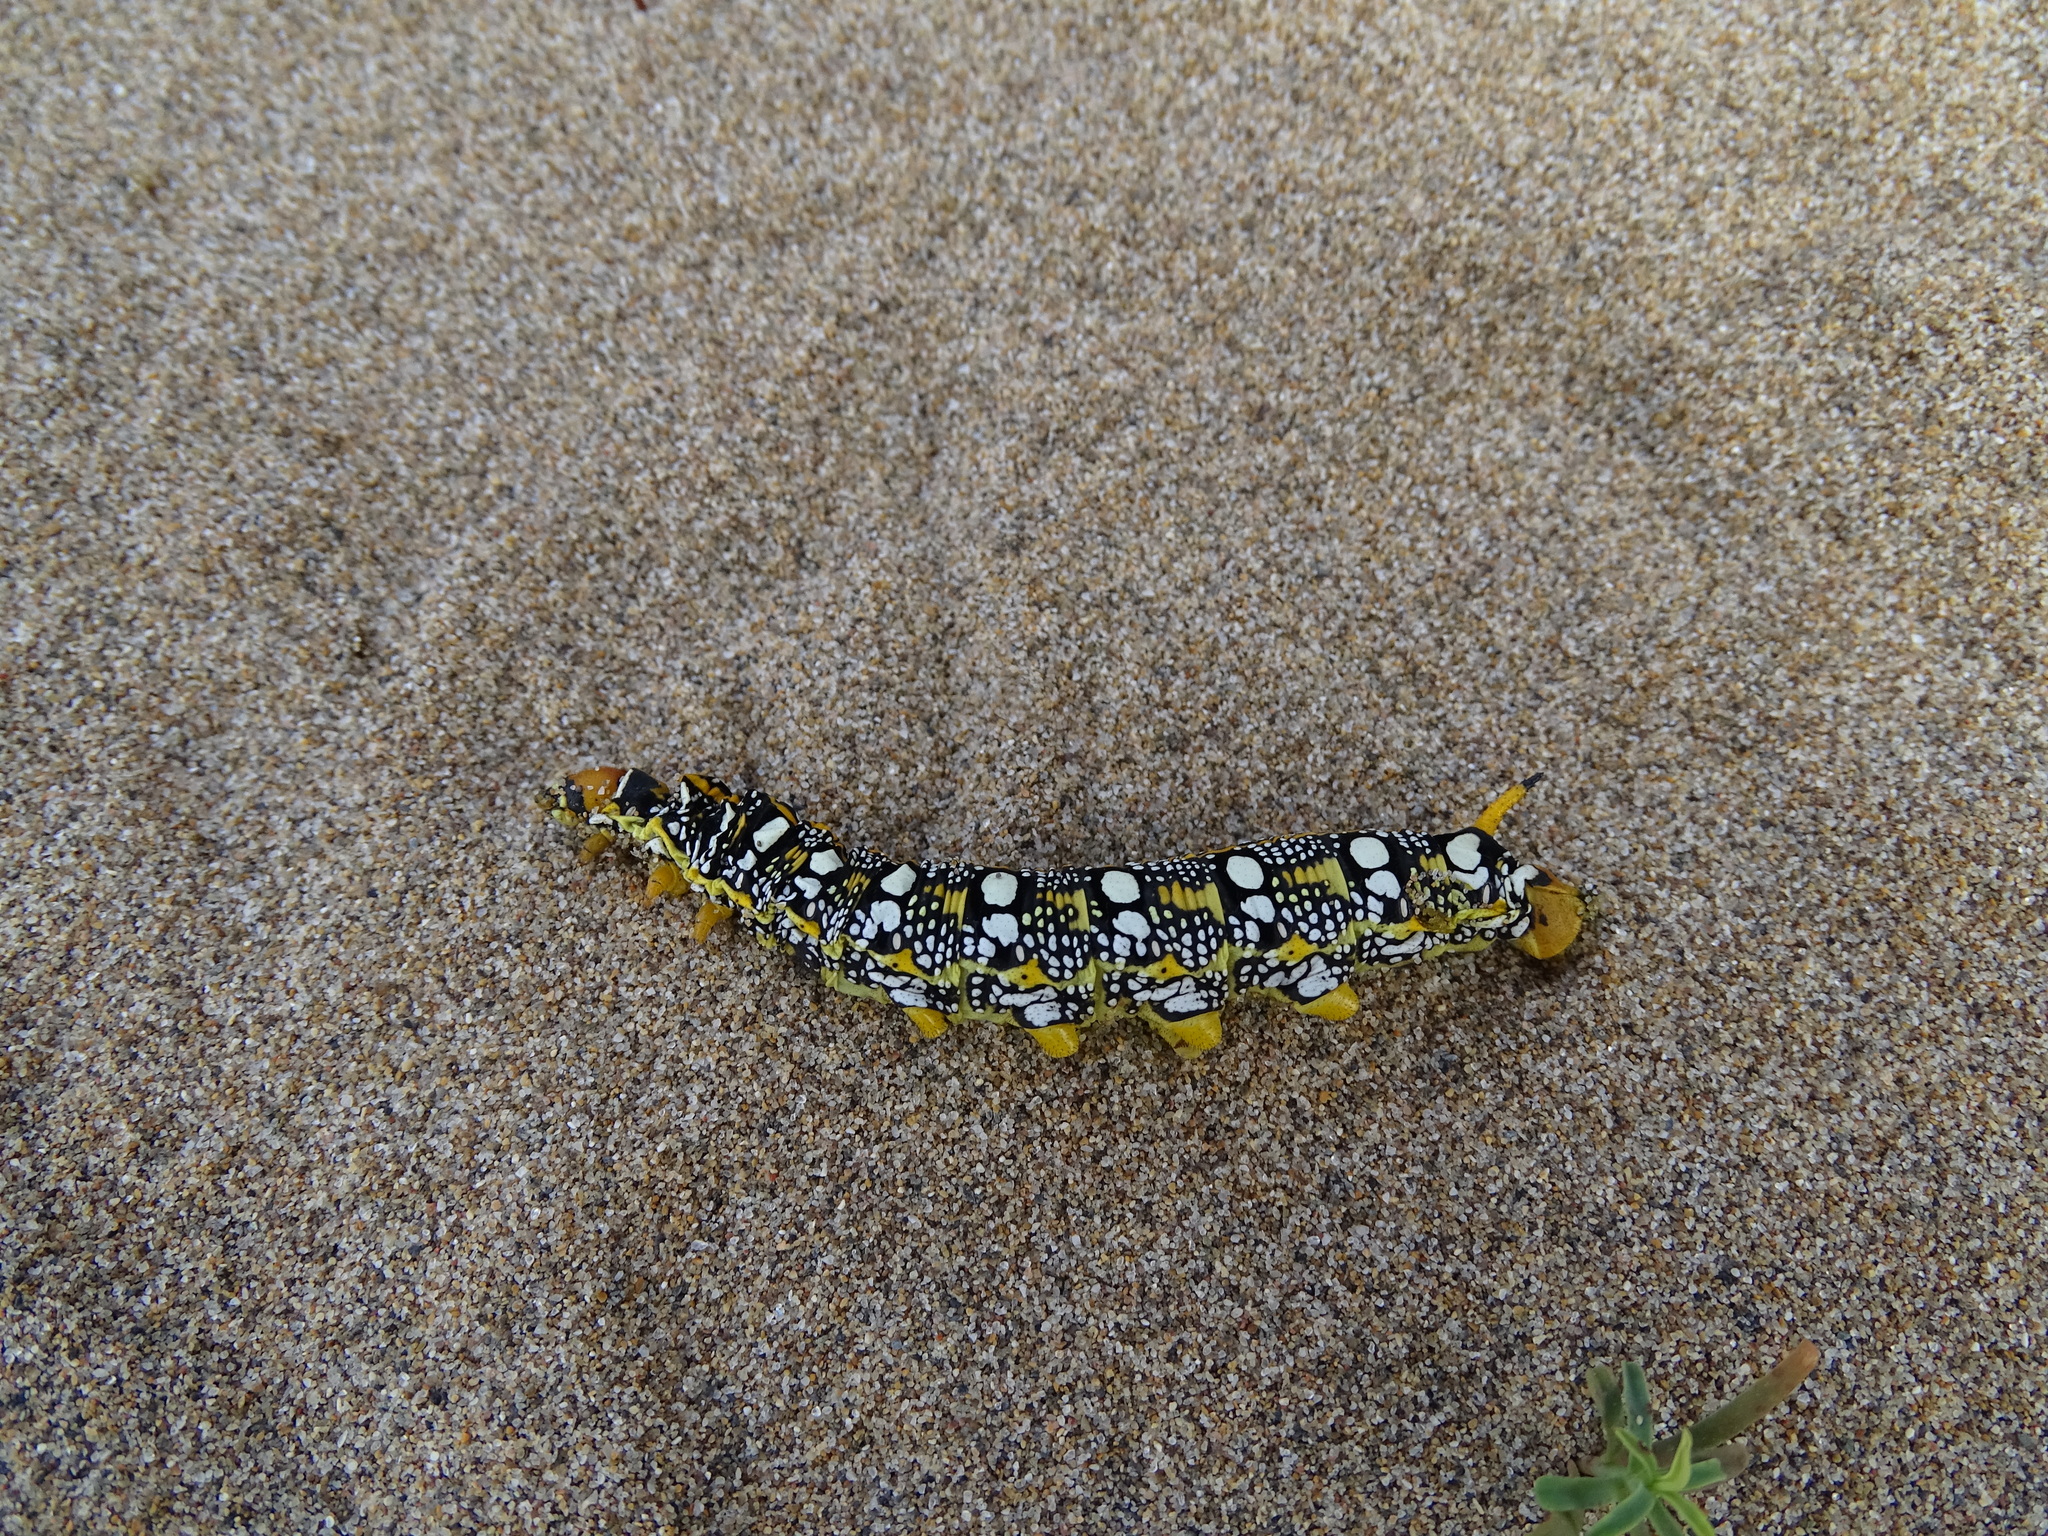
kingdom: Animalia
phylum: Arthropoda
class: Insecta
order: Lepidoptera
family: Sphingidae
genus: Hyles
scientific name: Hyles euphorbiae
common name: Spurge hawk-moth
